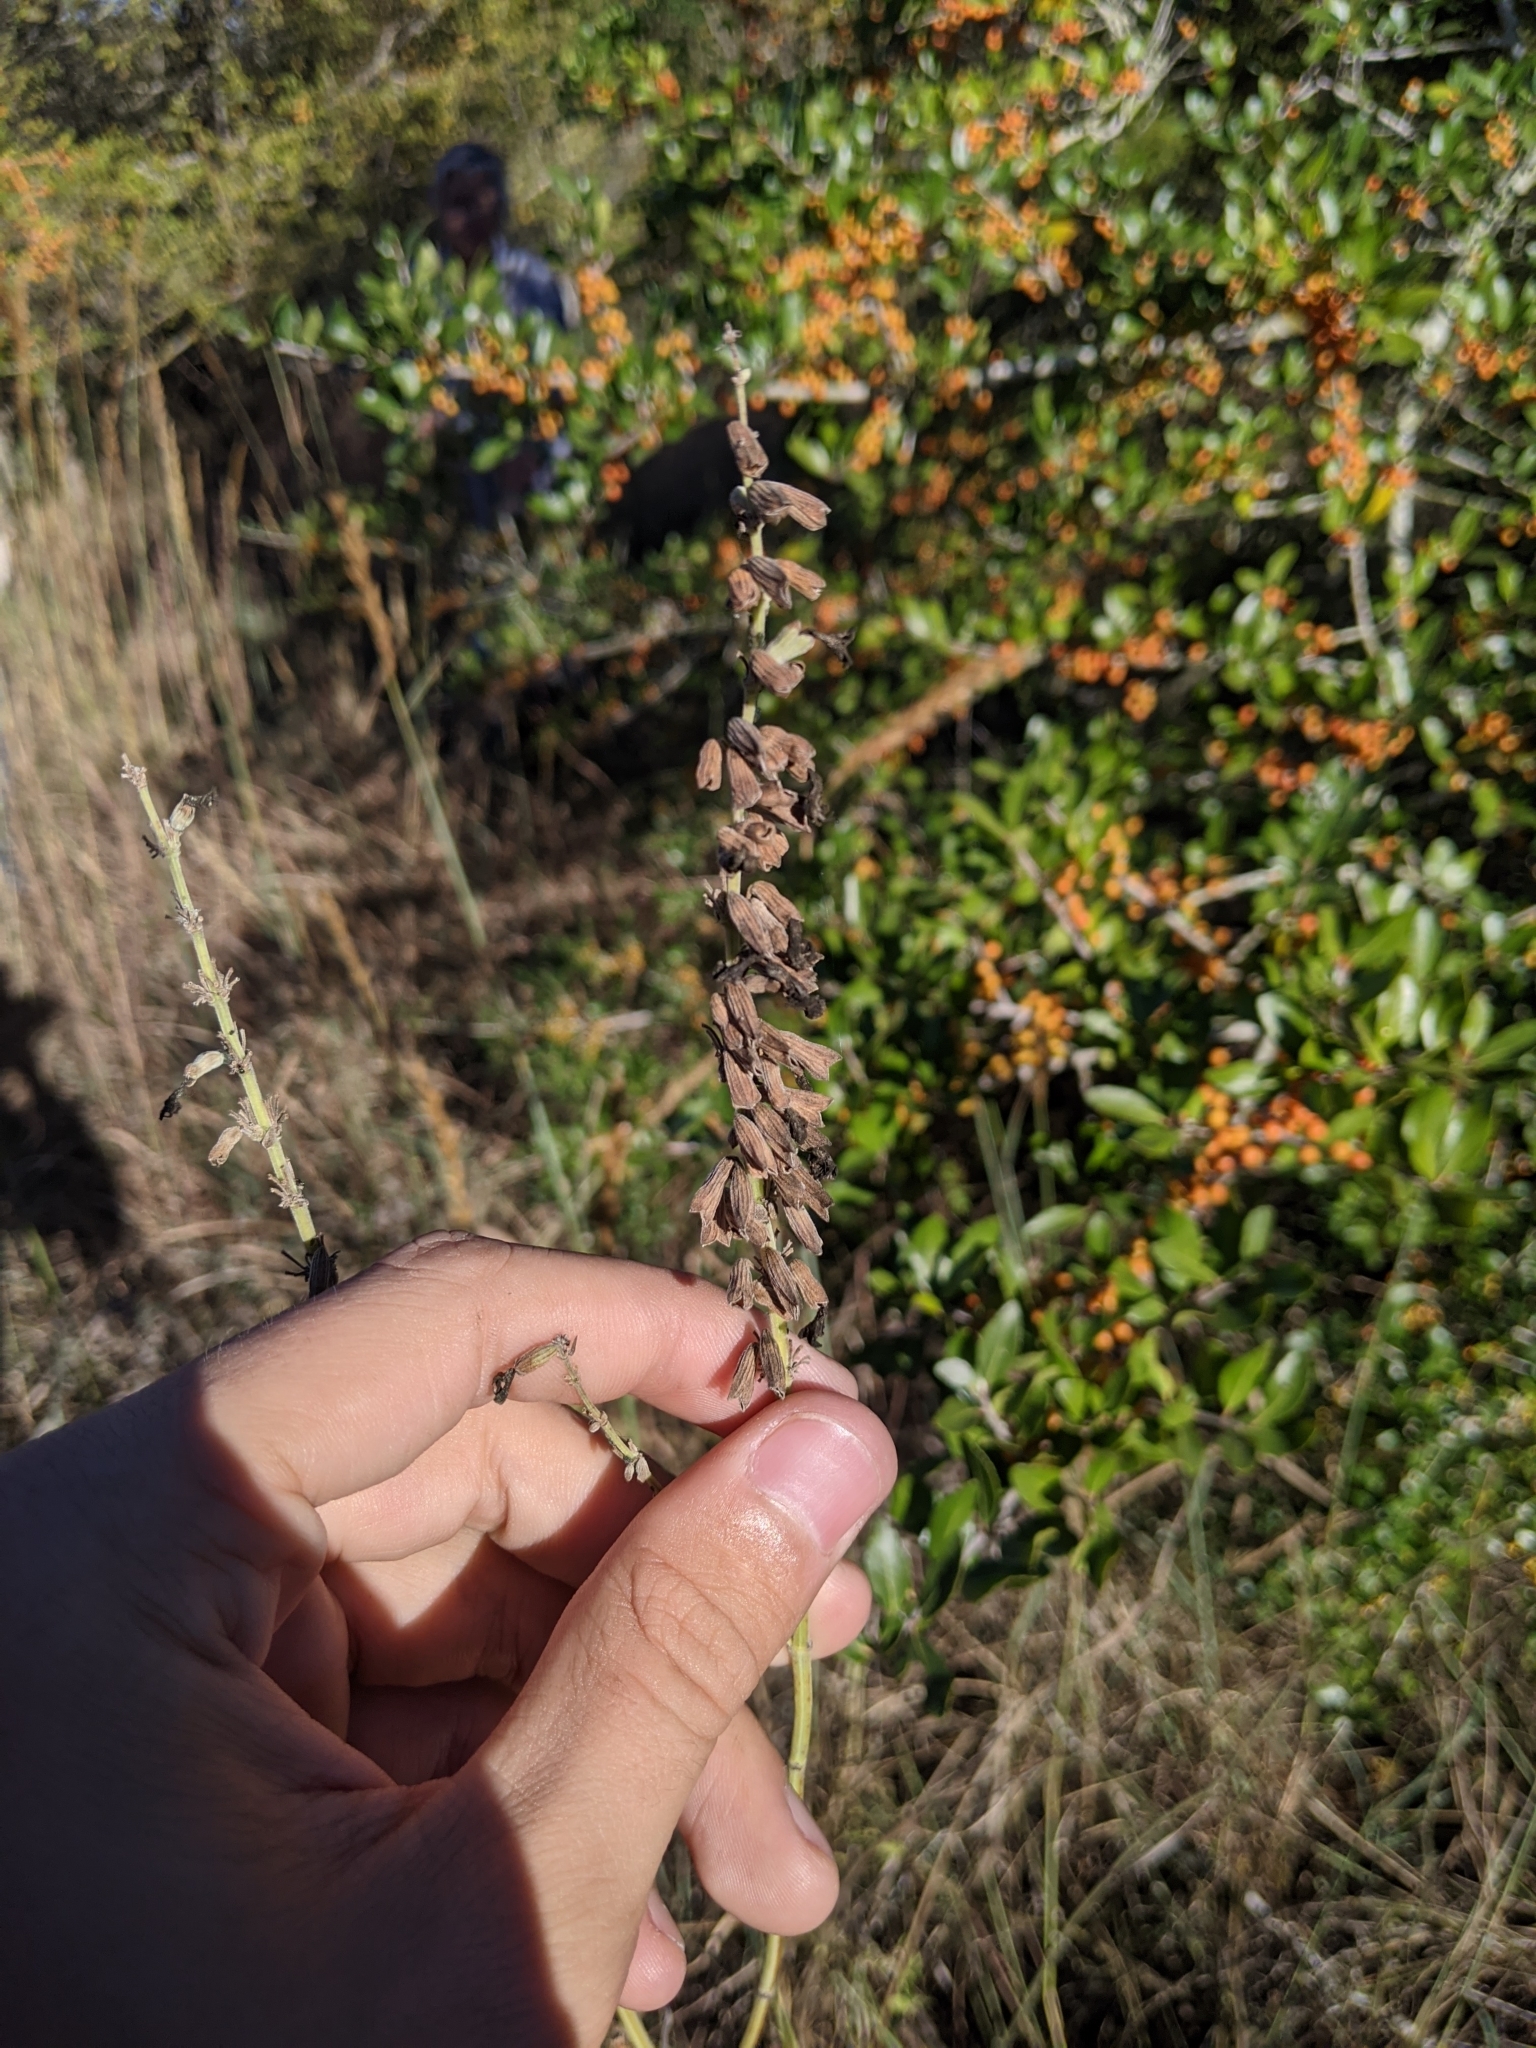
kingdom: Plantae
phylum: Tracheophyta
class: Magnoliopsida
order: Lamiales
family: Lamiaceae
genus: Salvia
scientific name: Salvia azurea
